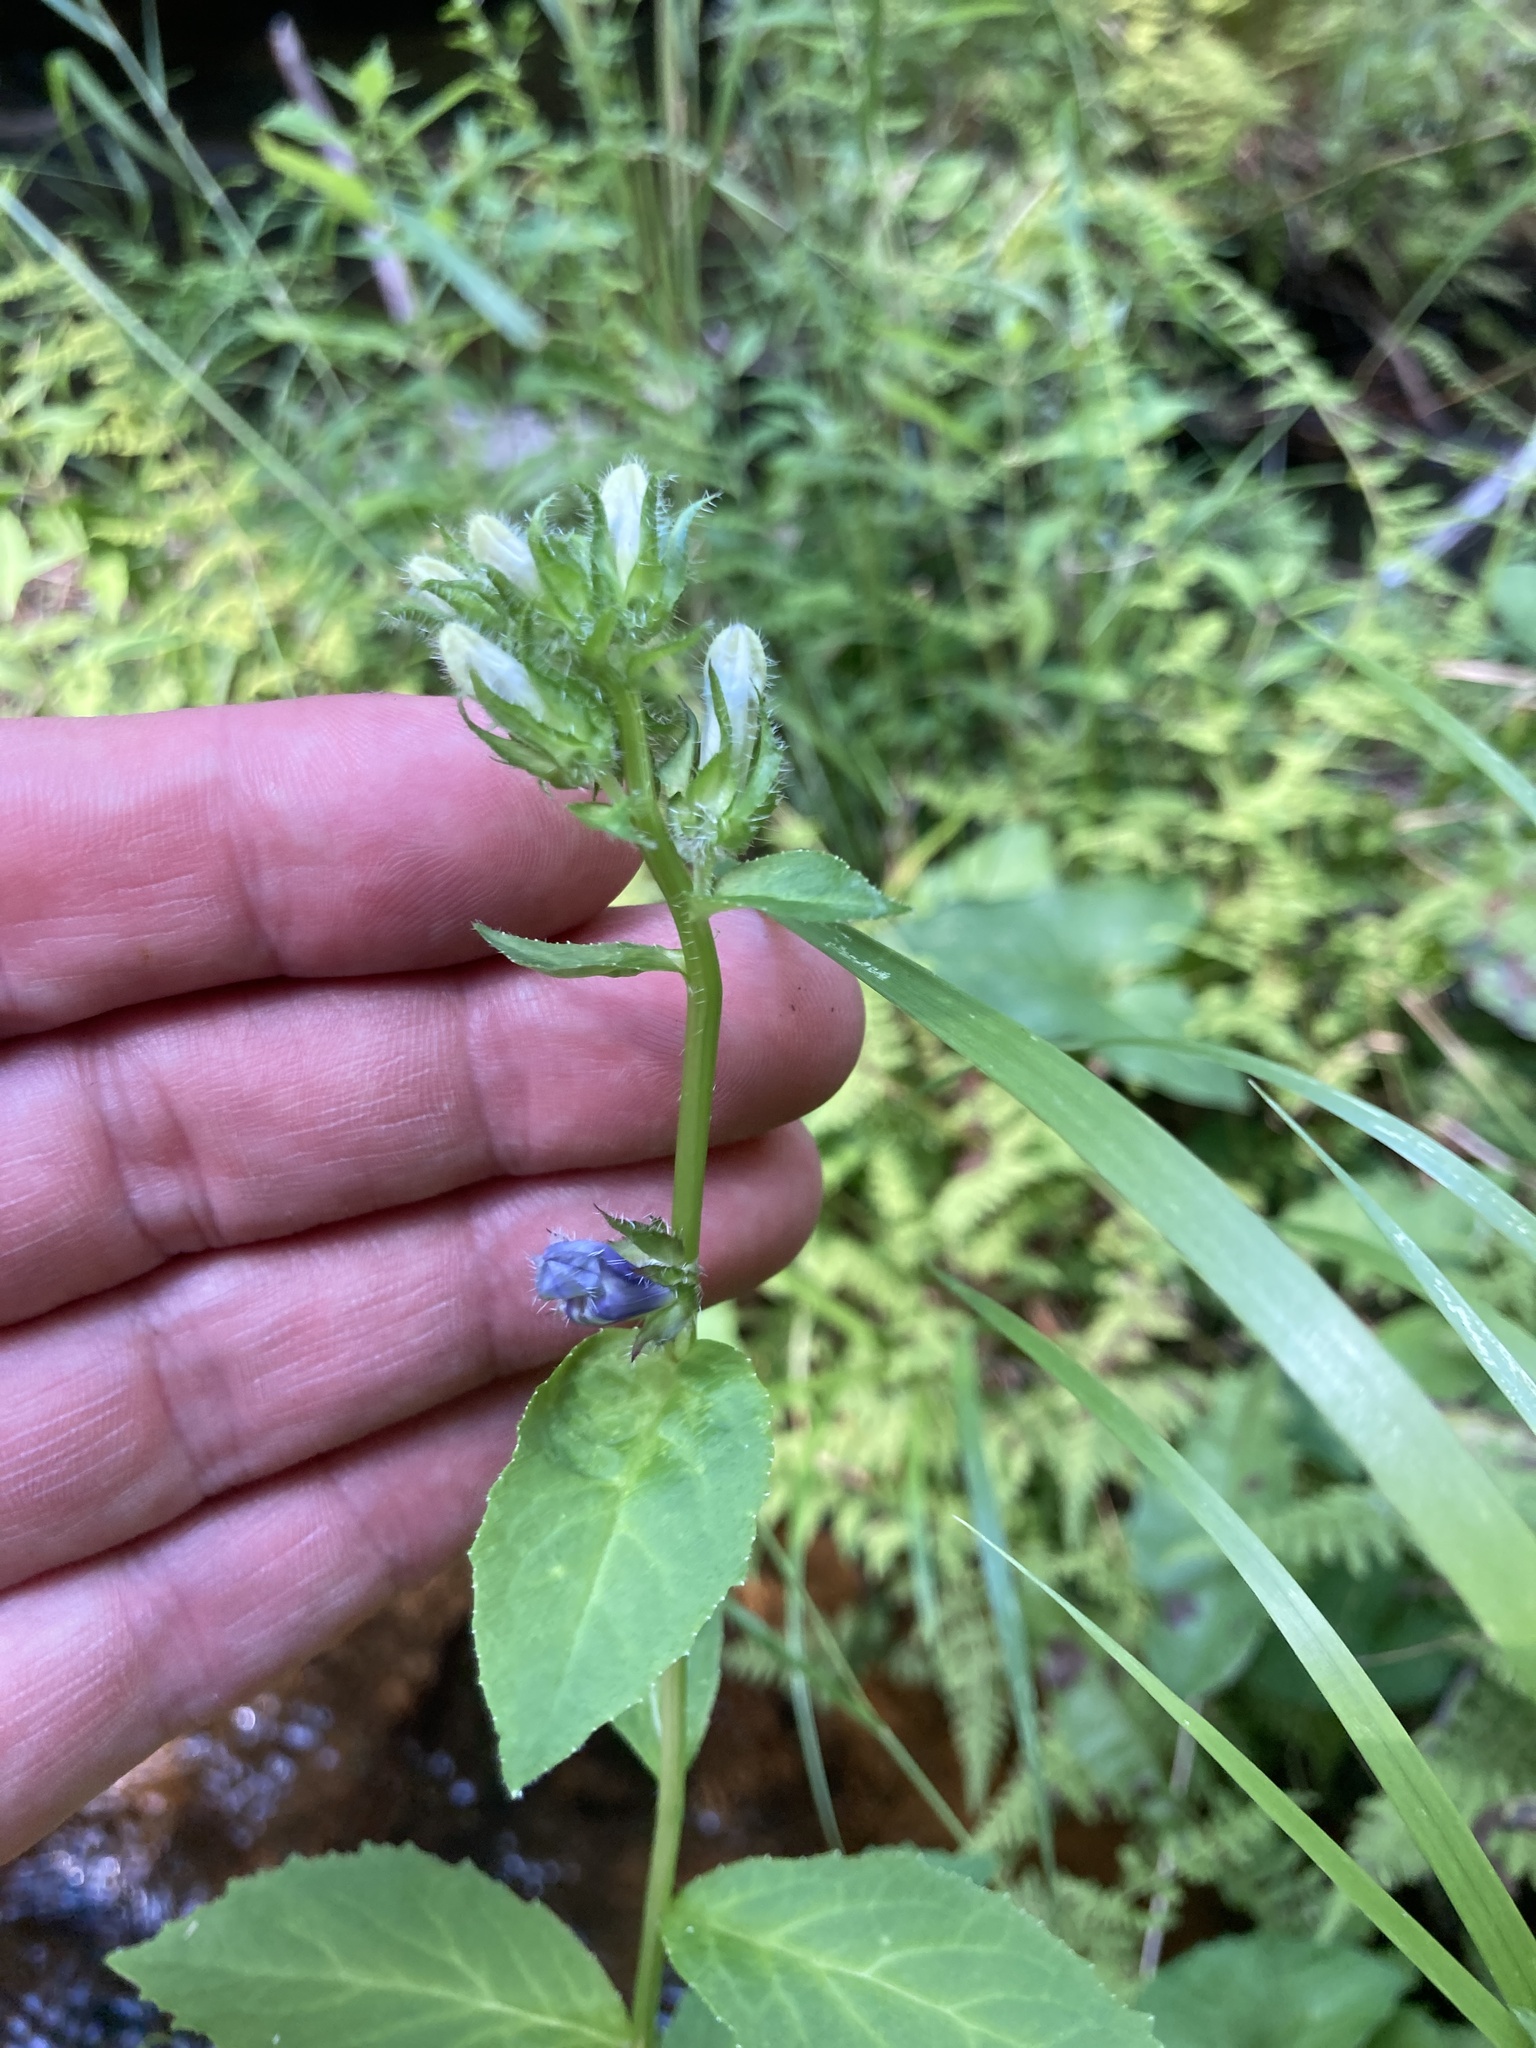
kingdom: Plantae
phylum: Tracheophyta
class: Magnoliopsida
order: Asterales
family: Campanulaceae
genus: Lobelia
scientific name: Lobelia siphilitica
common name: Great lobelia
